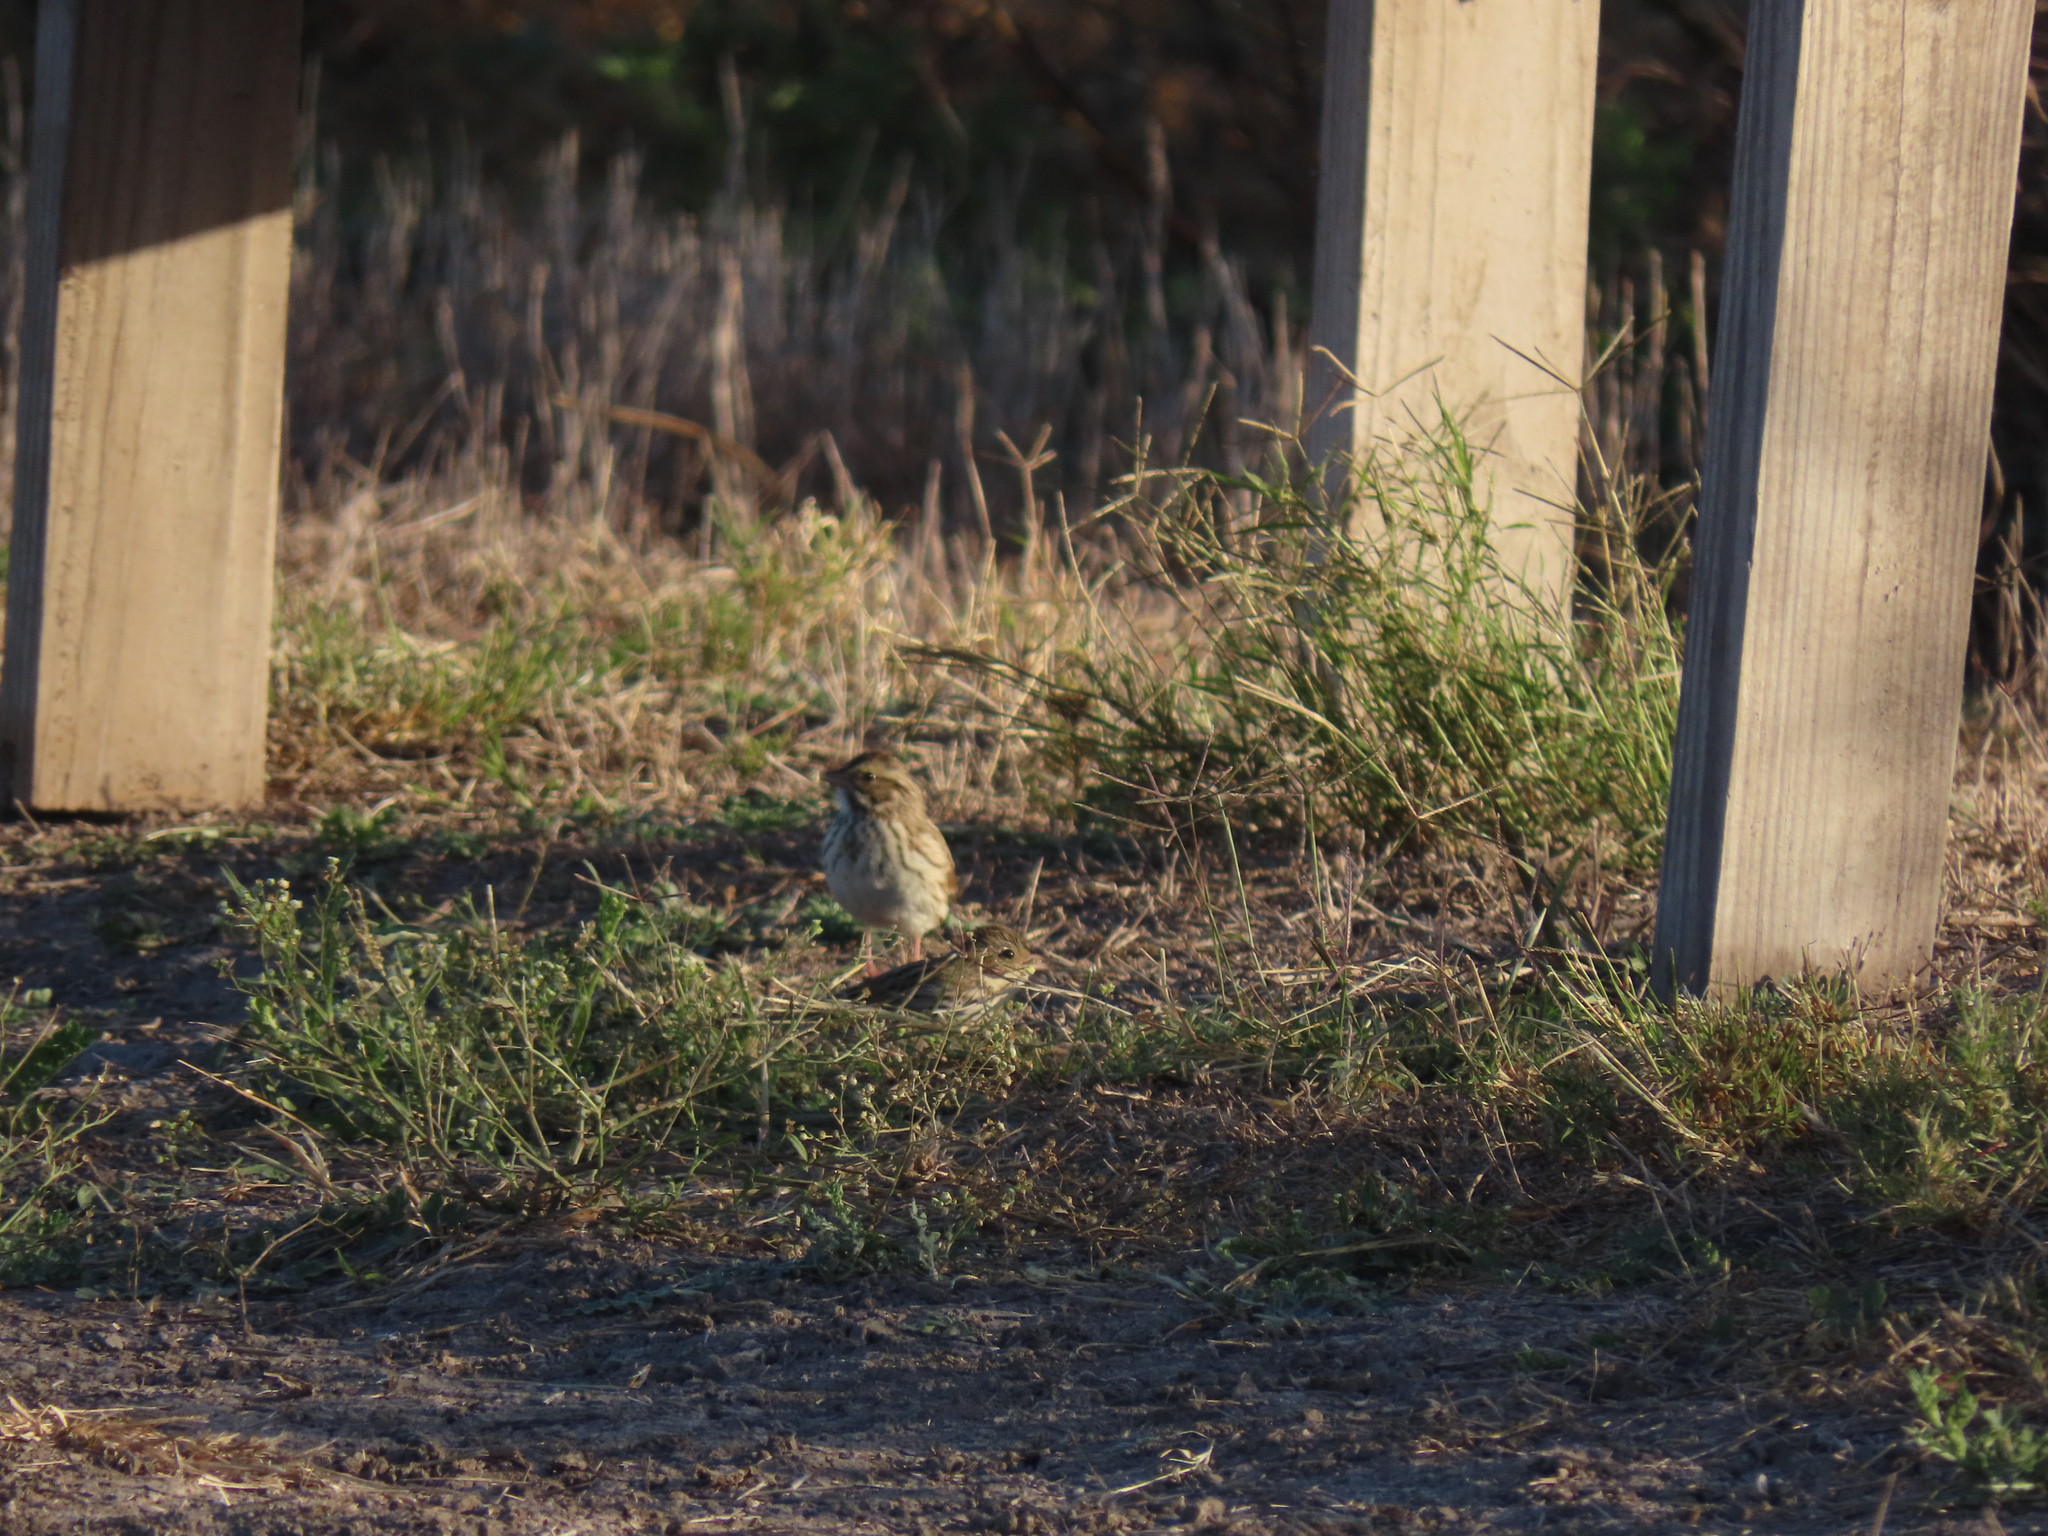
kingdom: Animalia
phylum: Chordata
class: Aves
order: Passeriformes
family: Passerellidae
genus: Passerculus
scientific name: Passerculus sandwichensis
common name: Savannah sparrow
